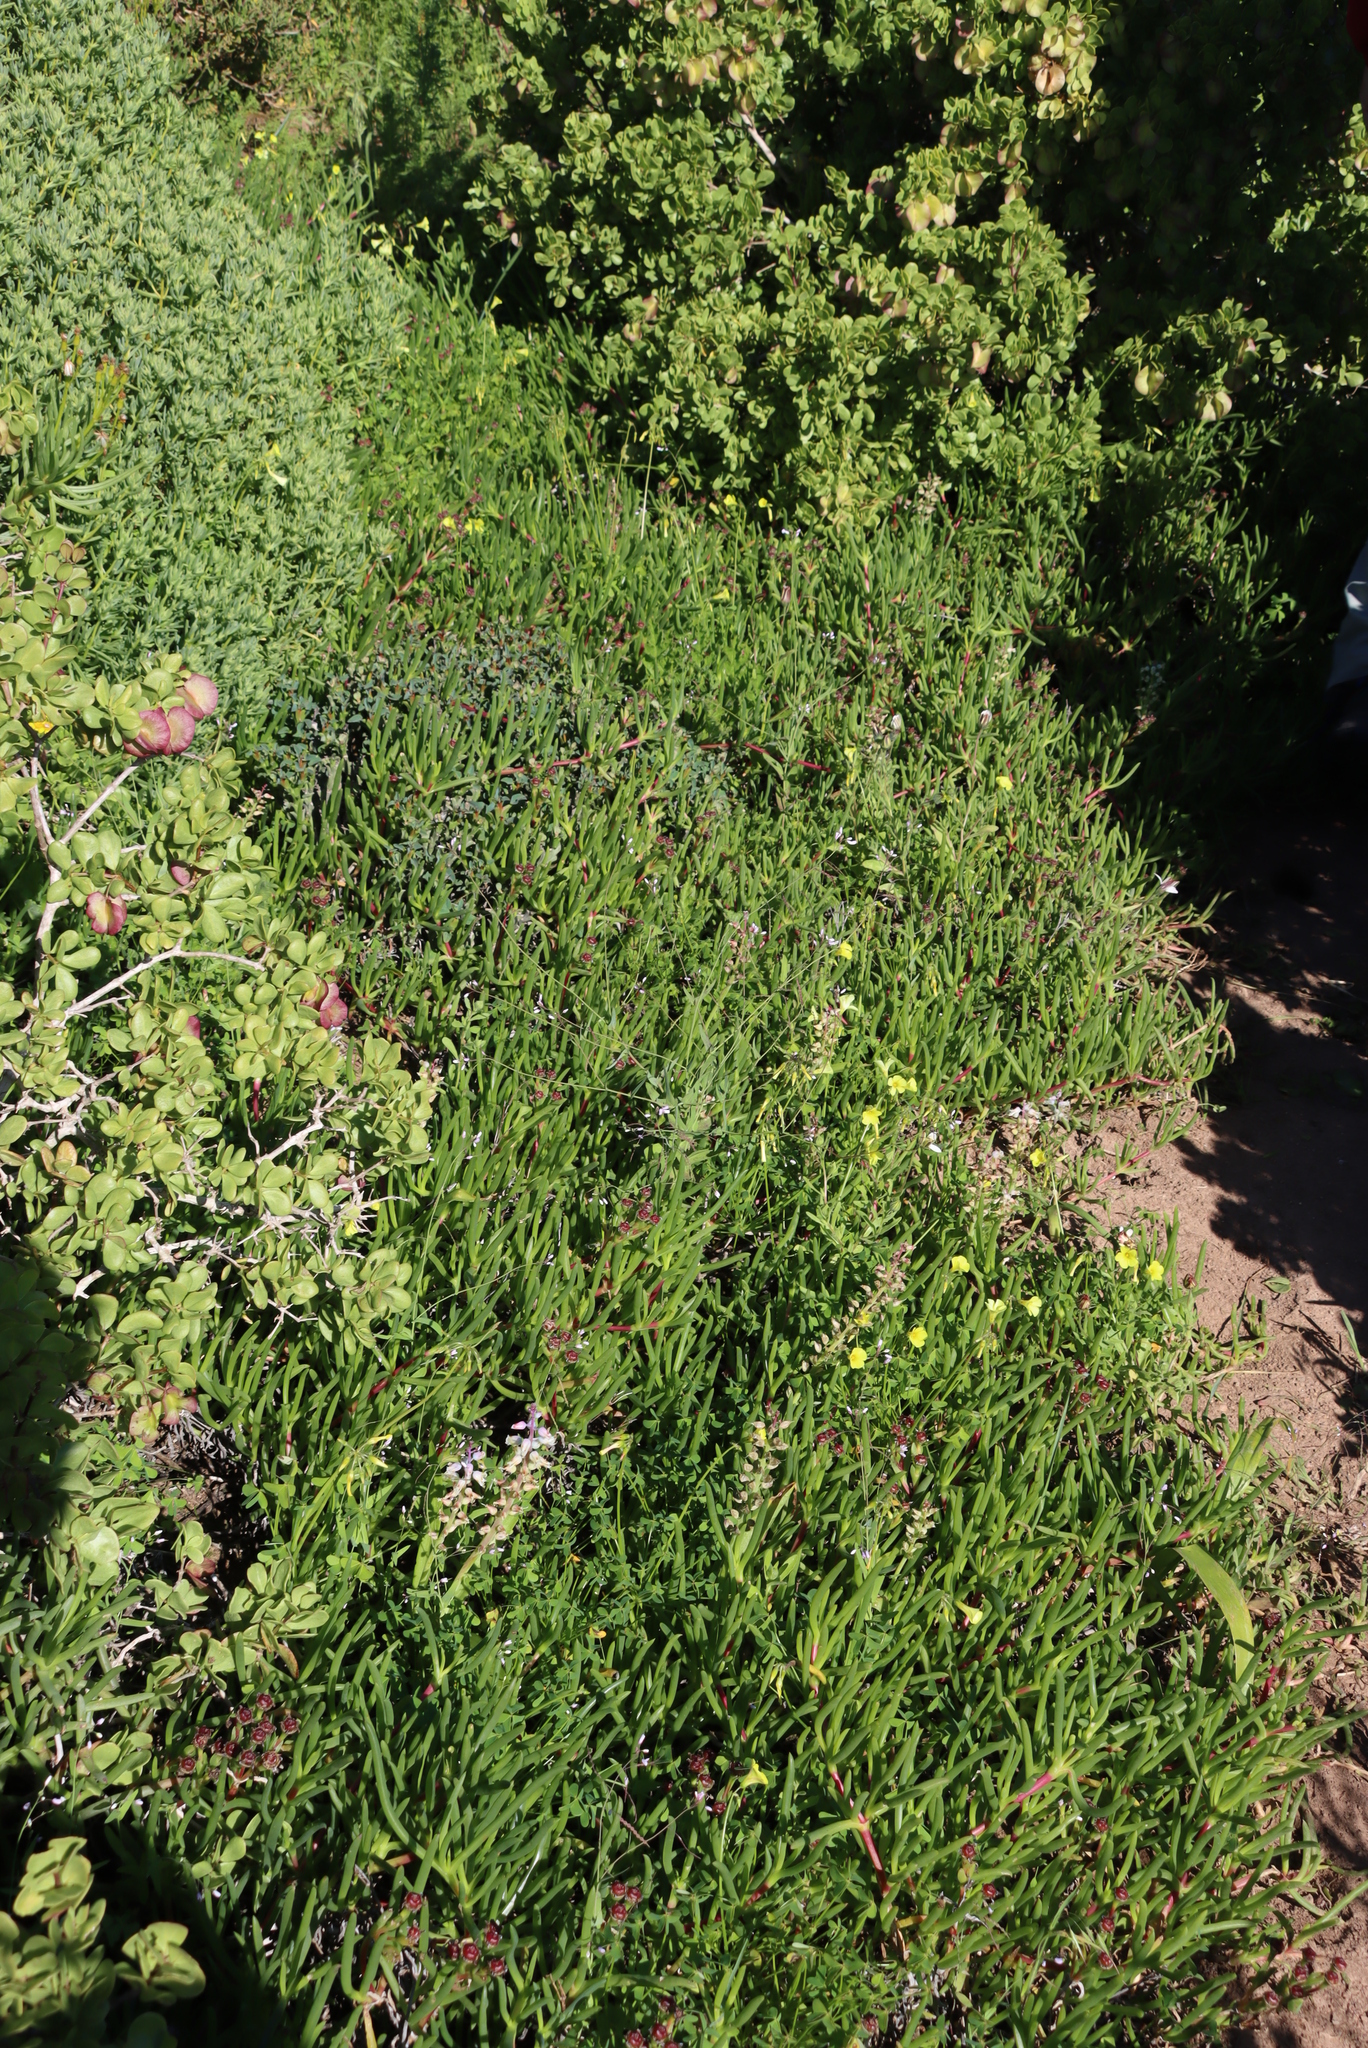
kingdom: Plantae
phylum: Tracheophyta
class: Magnoliopsida
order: Brassicales
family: Brassicaceae
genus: Heliophila
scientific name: Heliophila amplexicaulis
